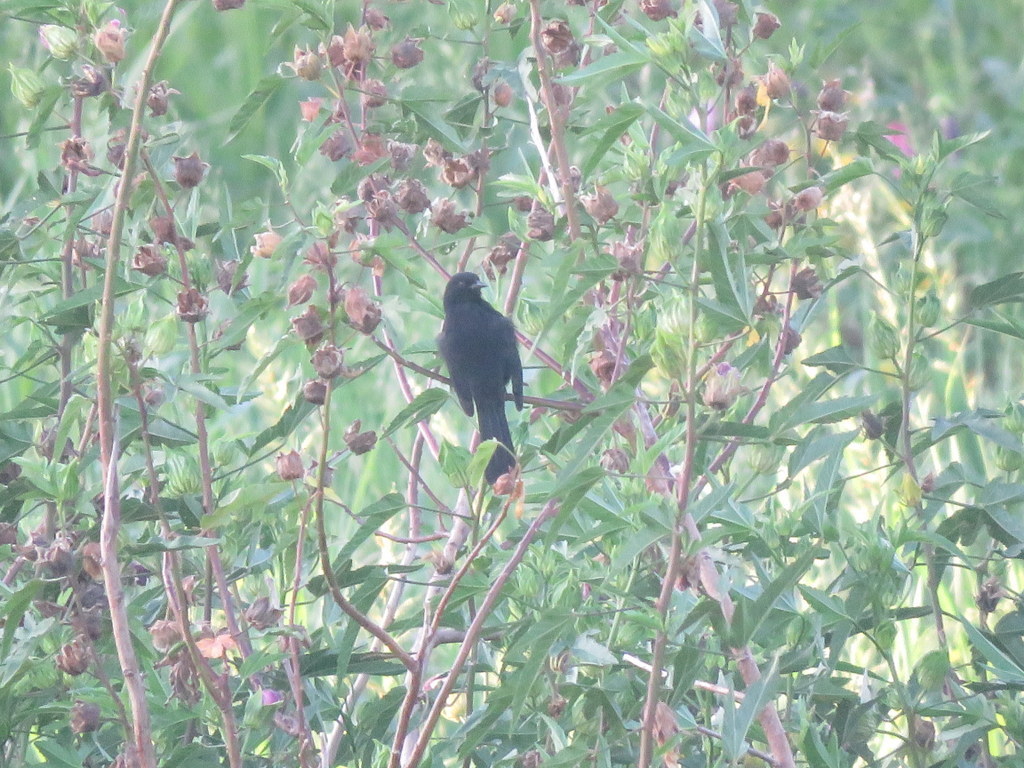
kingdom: Animalia
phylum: Chordata
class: Aves
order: Passeriformes
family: Icteridae
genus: Icterus
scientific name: Icterus cayanensis
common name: Epaulet oriole
